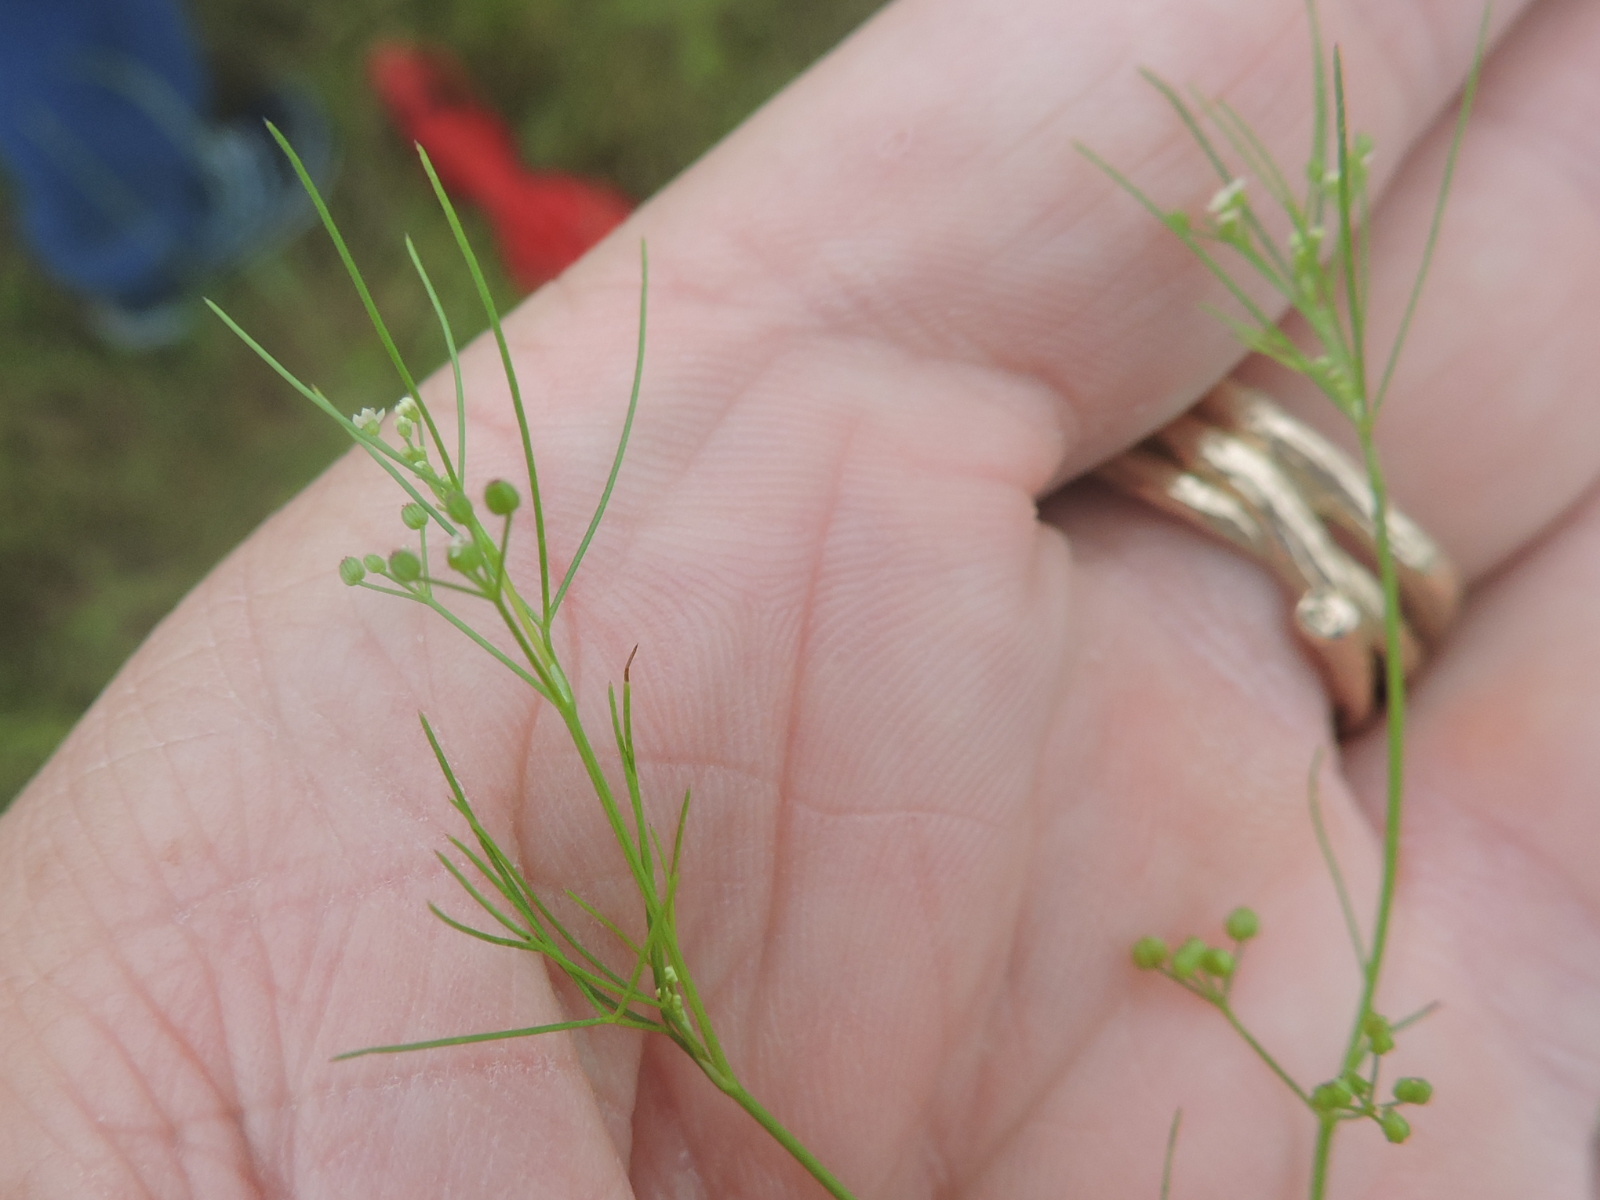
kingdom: Plantae
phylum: Tracheophyta
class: Magnoliopsida
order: Apiales
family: Apiaceae
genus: Spermolepis
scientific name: Spermolepis echinata
